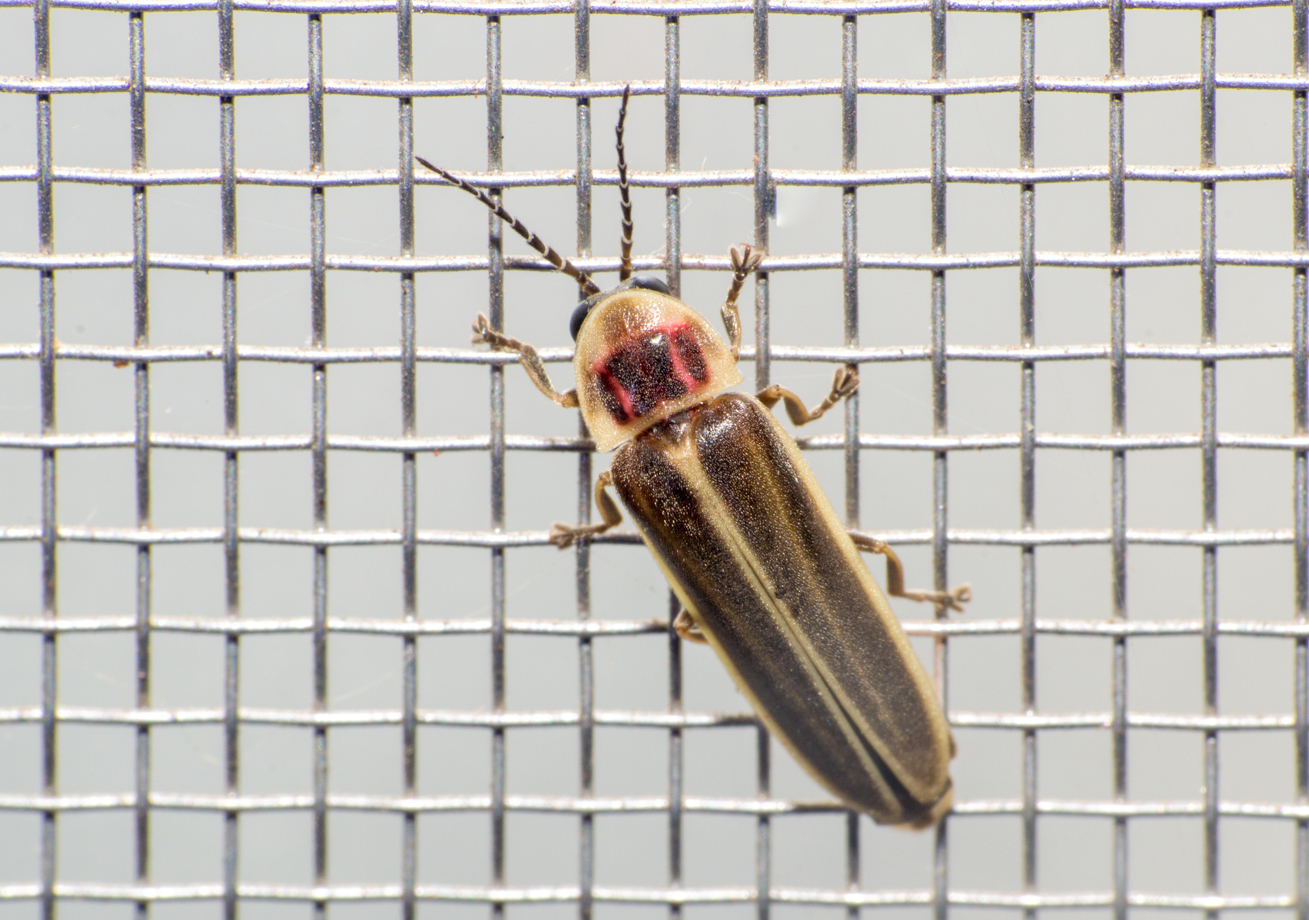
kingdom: Animalia
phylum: Arthropoda
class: Insecta
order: Coleoptera
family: Lampyridae
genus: Photinus
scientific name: Photinus signaticollis
